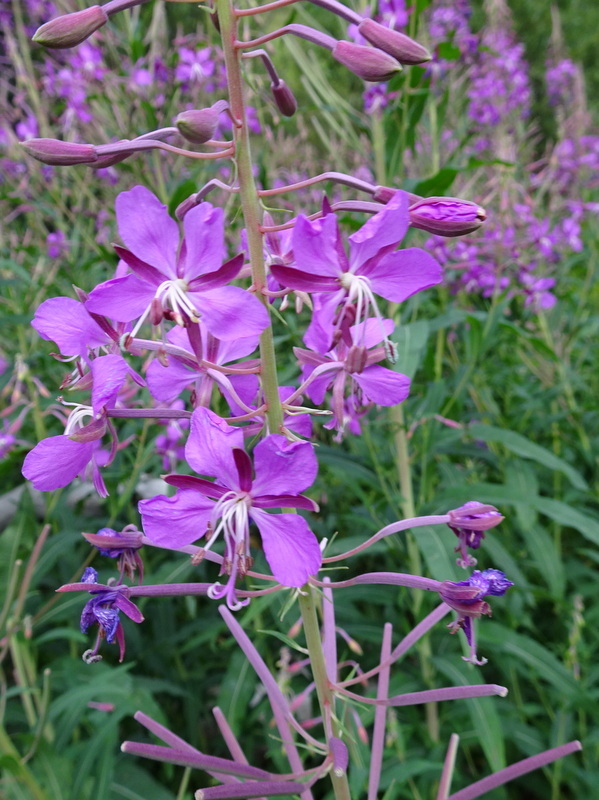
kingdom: Plantae
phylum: Tracheophyta
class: Magnoliopsida
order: Myrtales
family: Onagraceae
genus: Chamaenerion
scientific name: Chamaenerion angustifolium
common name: Fireweed
